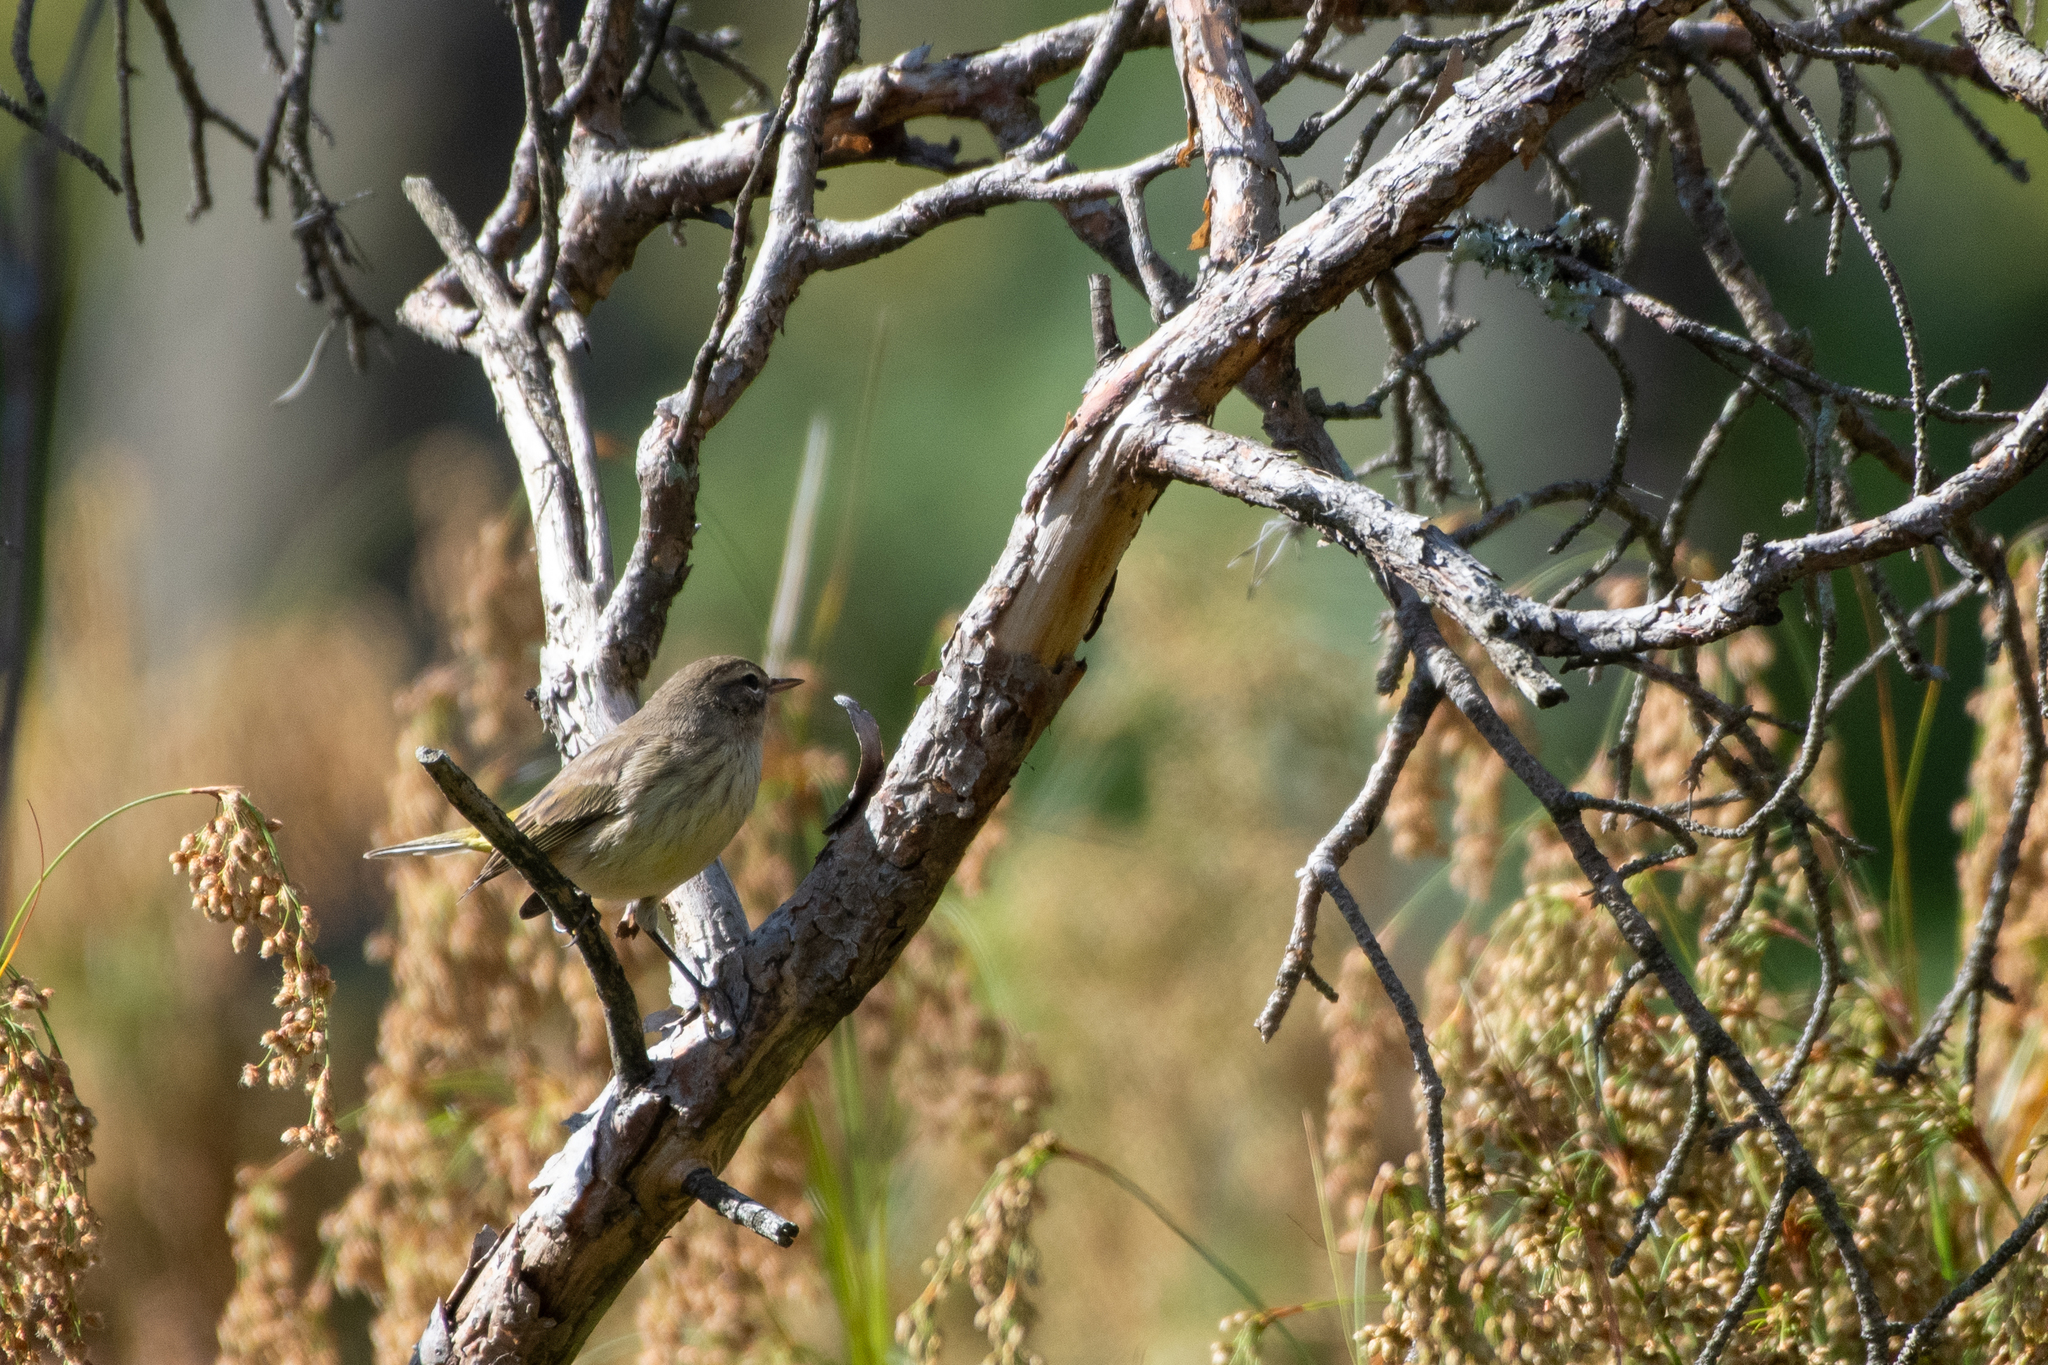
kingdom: Animalia
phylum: Chordata
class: Aves
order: Passeriformes
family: Parulidae
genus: Setophaga
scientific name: Setophaga palmarum
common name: Palm warbler
